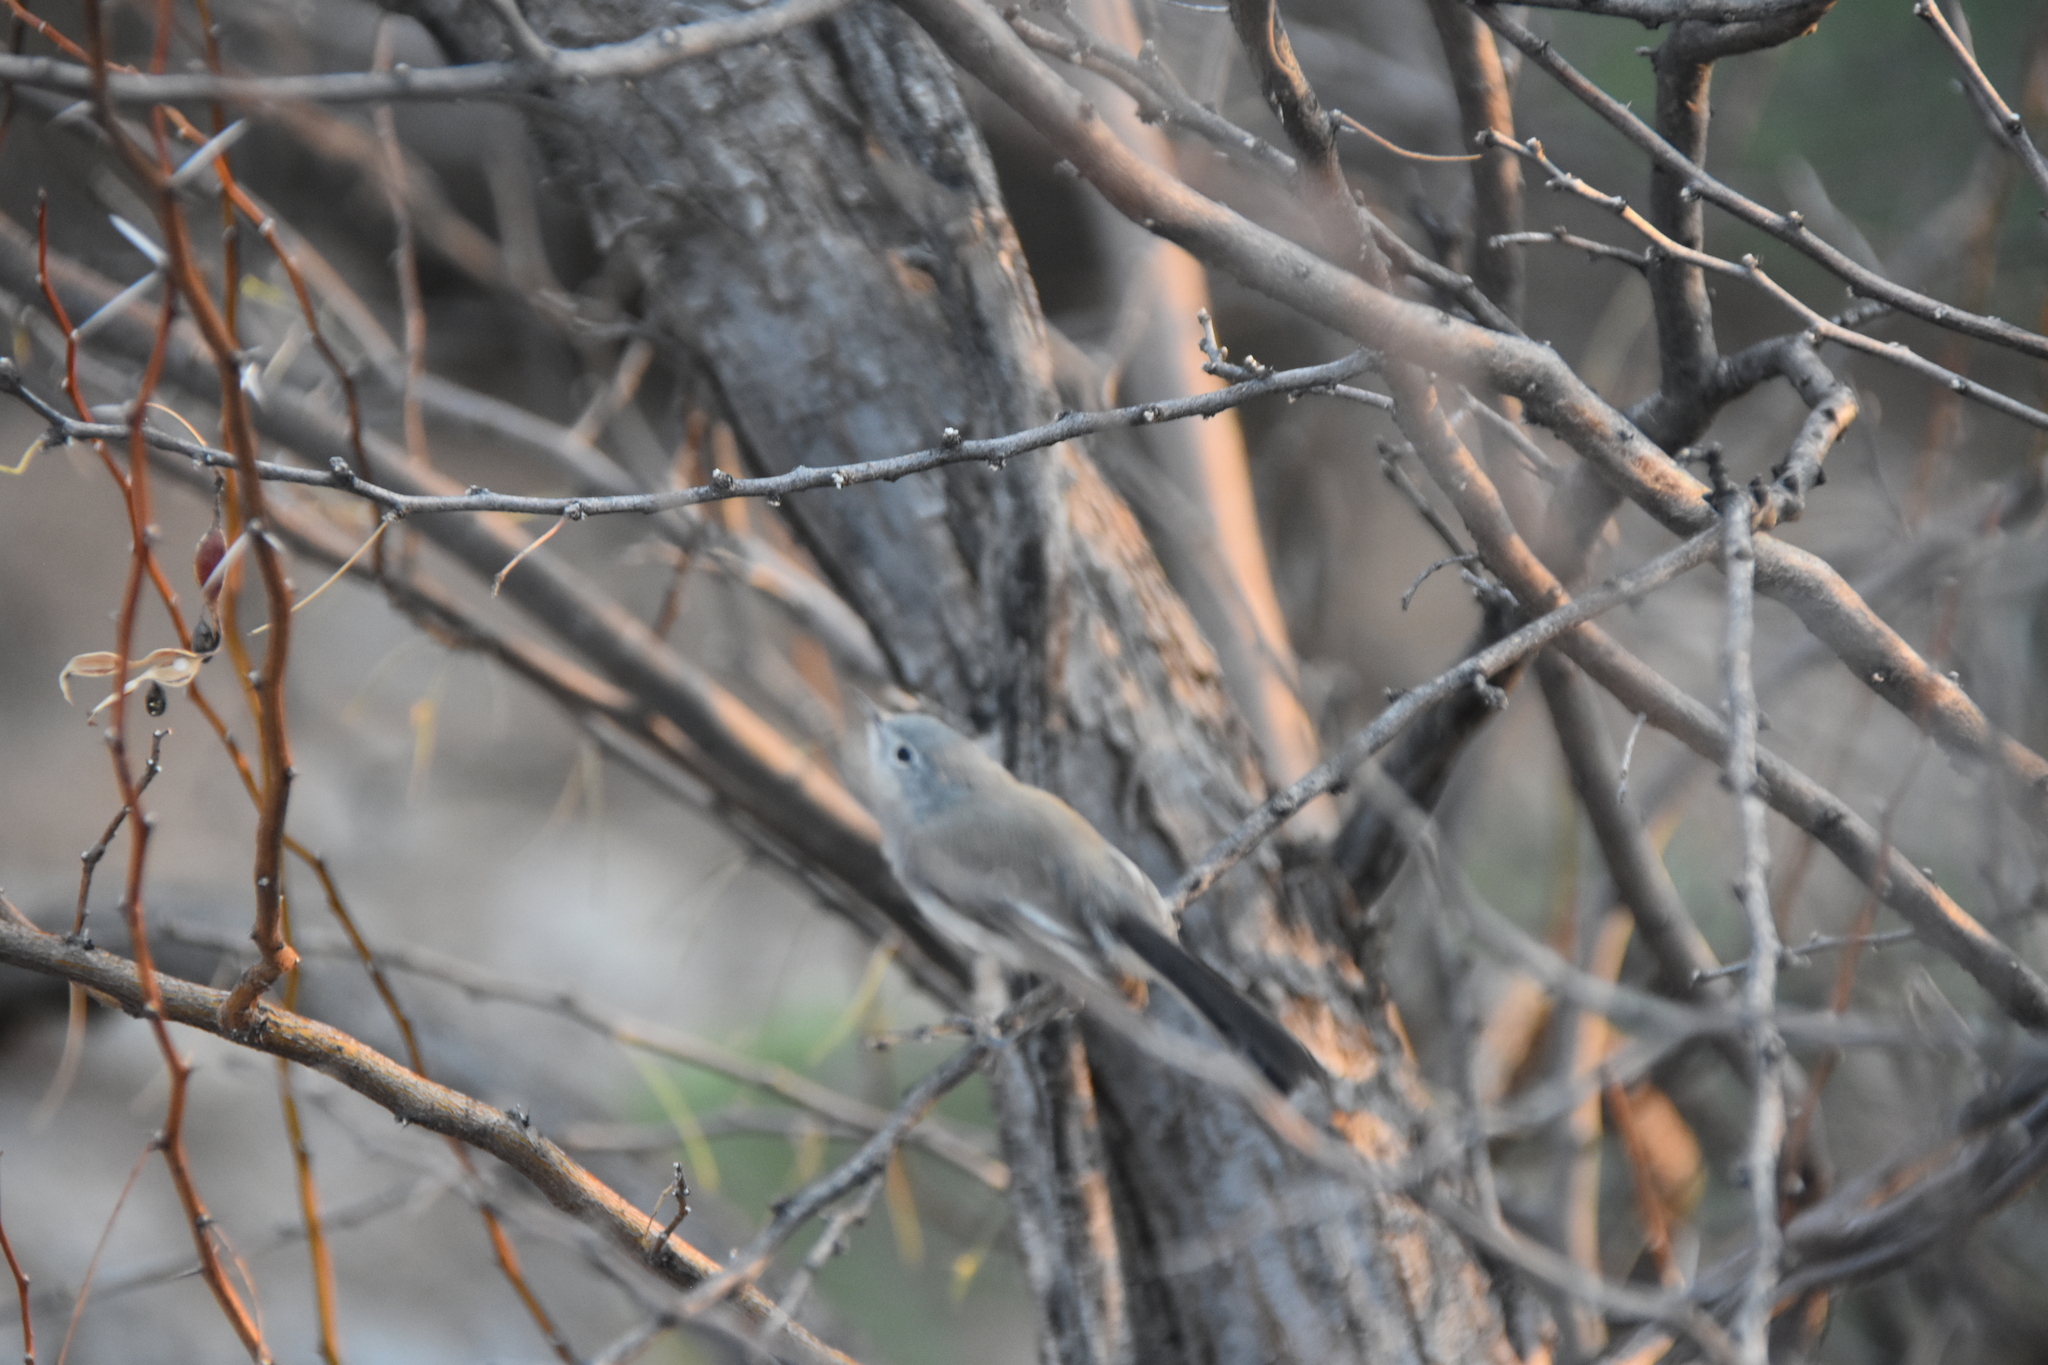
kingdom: Animalia
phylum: Chordata
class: Aves
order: Passeriformes
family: Polioptilidae
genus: Polioptila
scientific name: Polioptila melanura
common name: Black-tailed gnatcatcher
